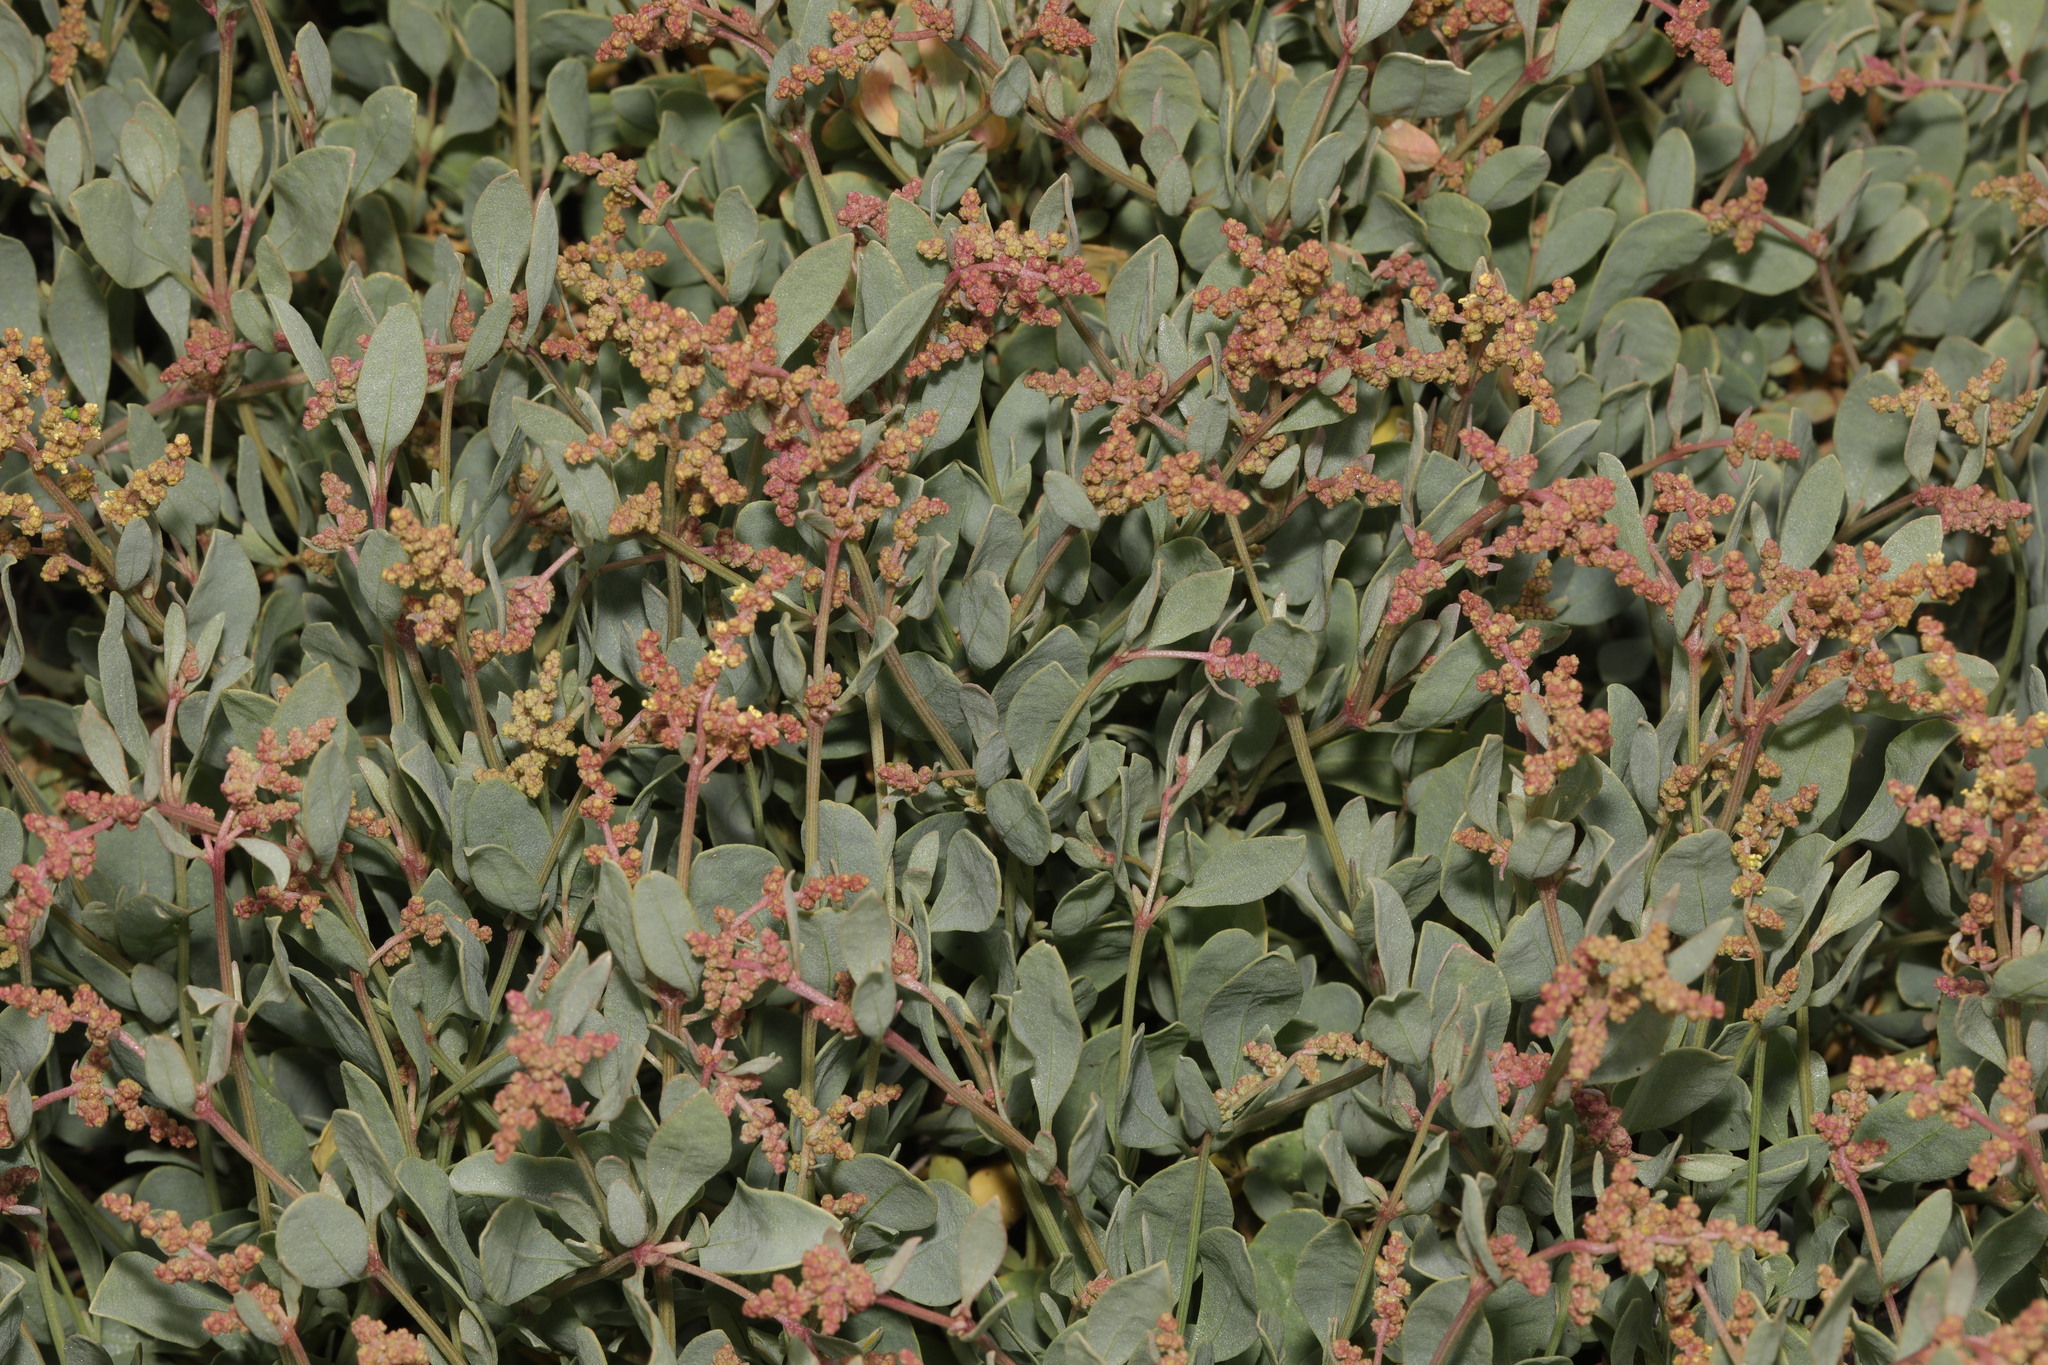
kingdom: Plantae
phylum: Tracheophyta
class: Magnoliopsida
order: Caryophyllales
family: Amaranthaceae
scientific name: Amaranthaceae
